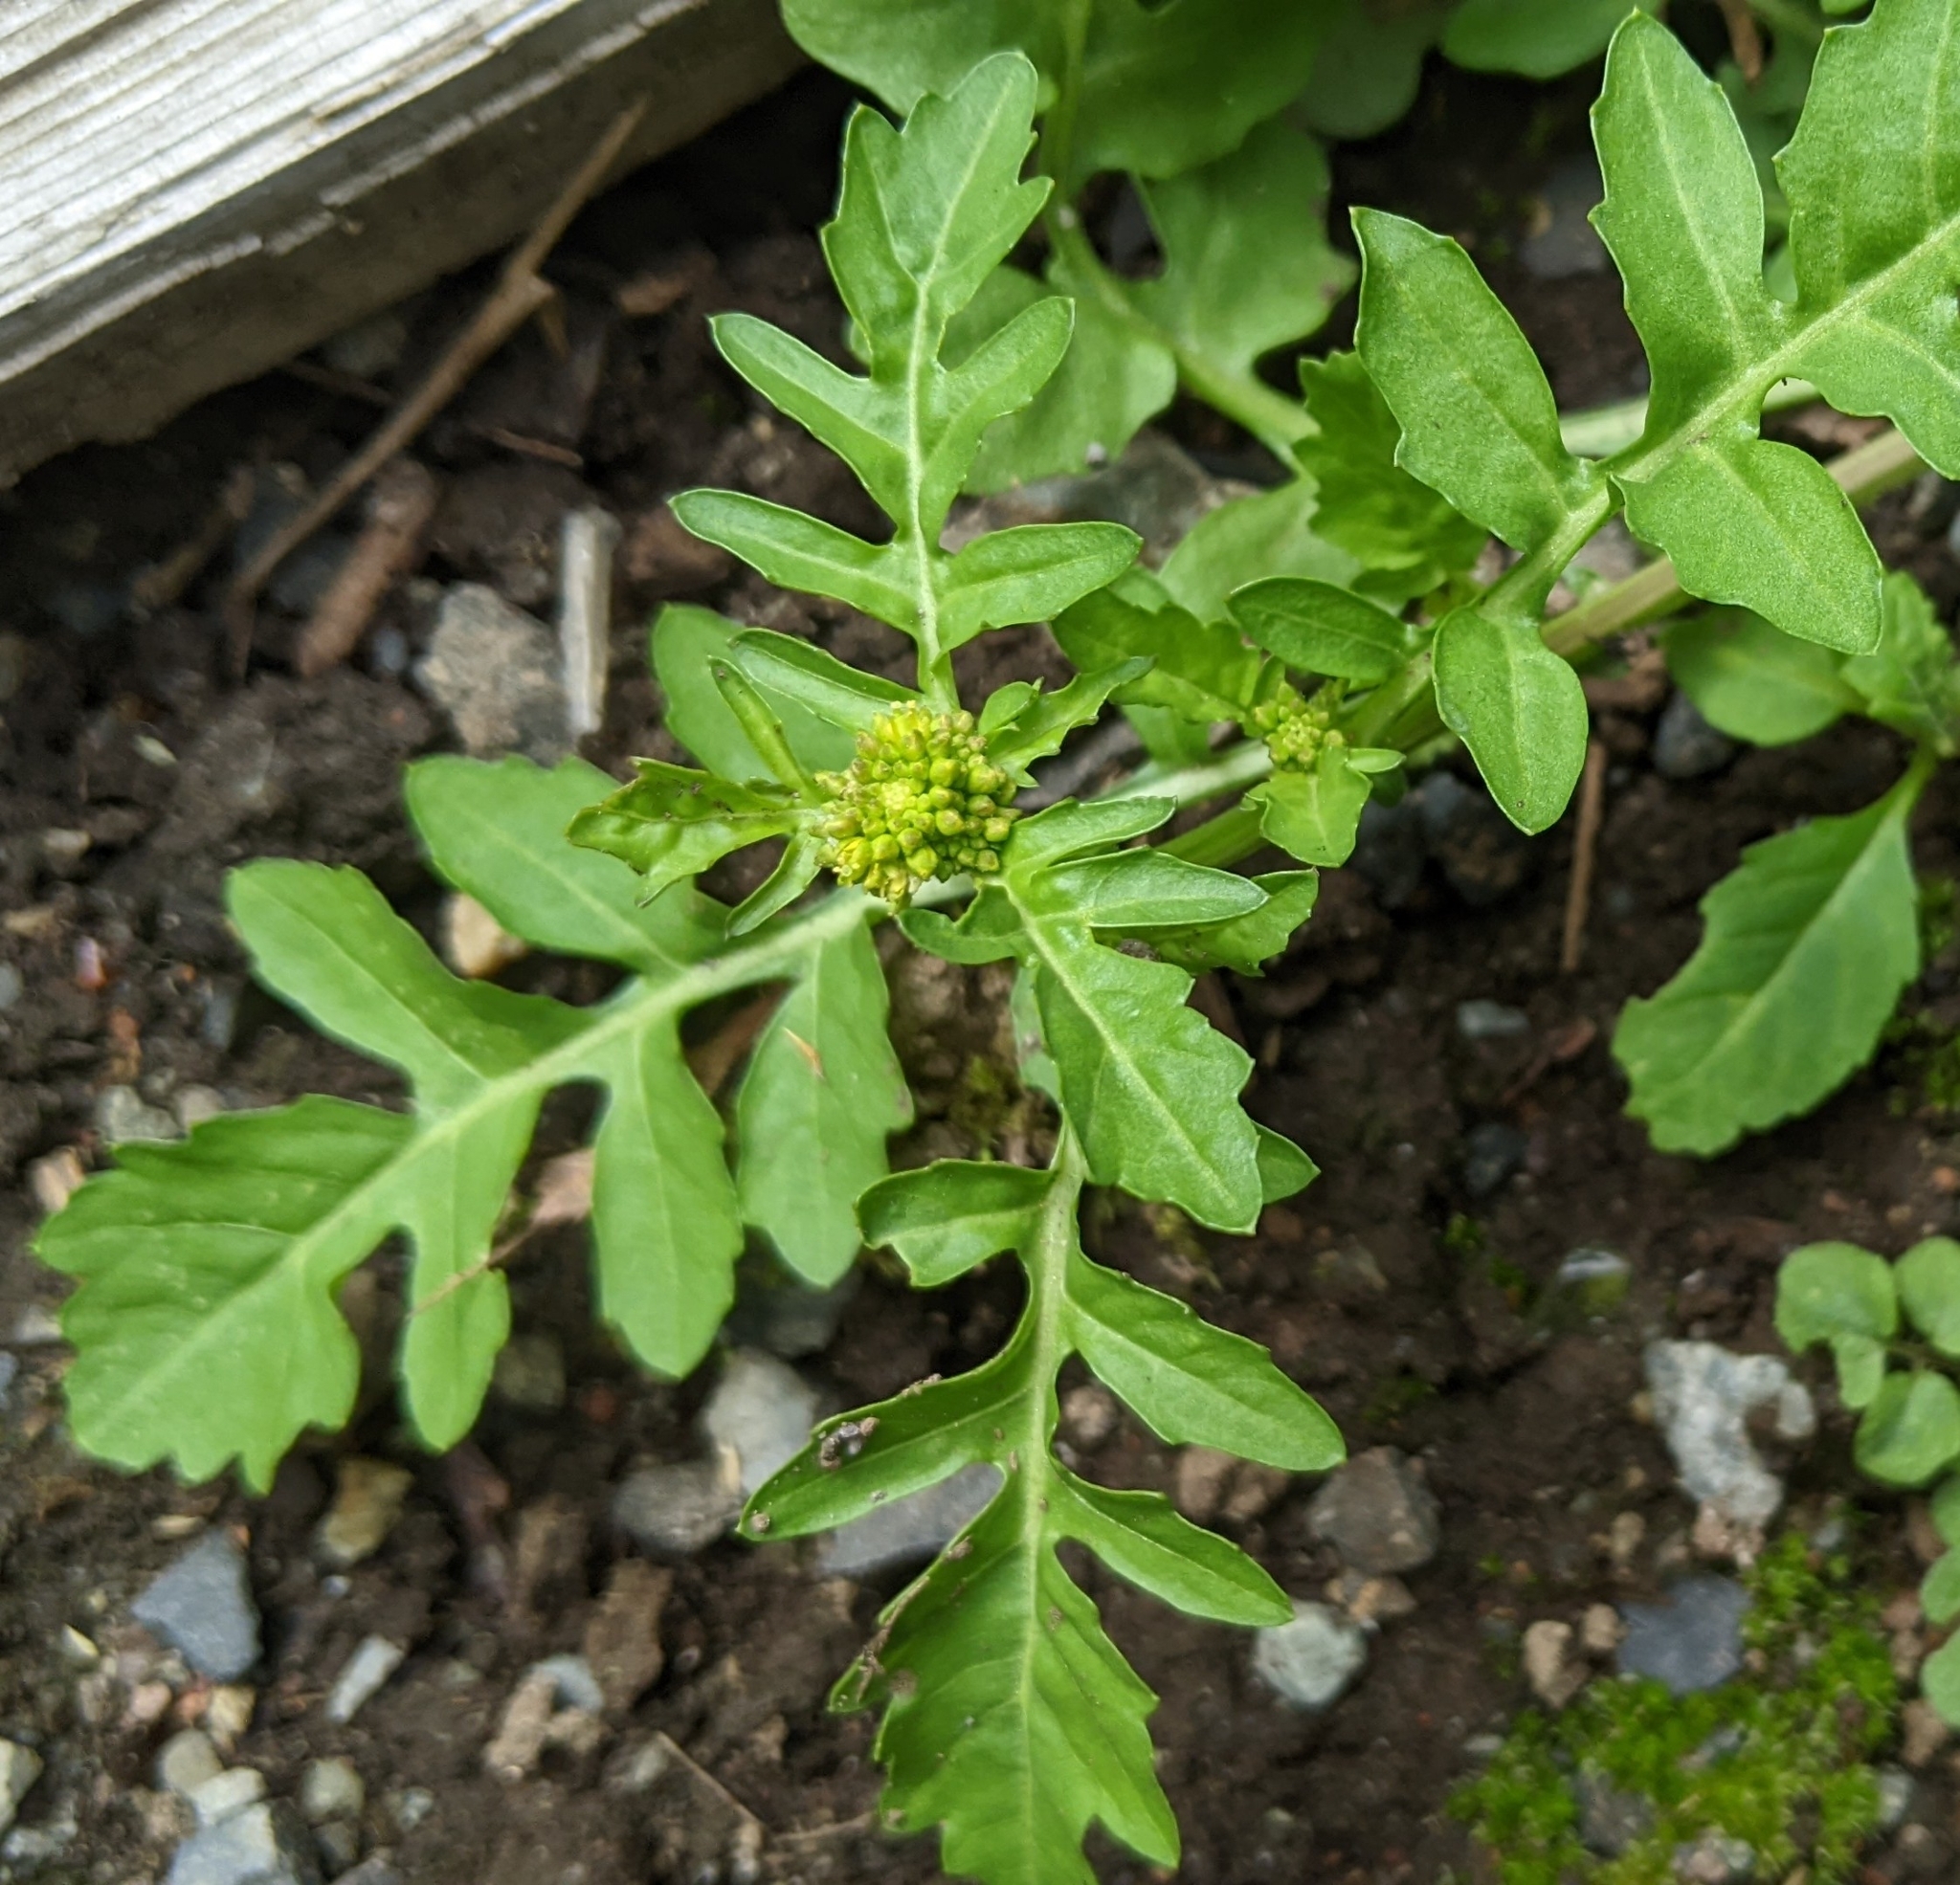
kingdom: Plantae
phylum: Tracheophyta
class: Magnoliopsida
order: Brassicales
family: Brassicaceae
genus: Rorippa
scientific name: Rorippa palustris
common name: Marsh yellow-cress
